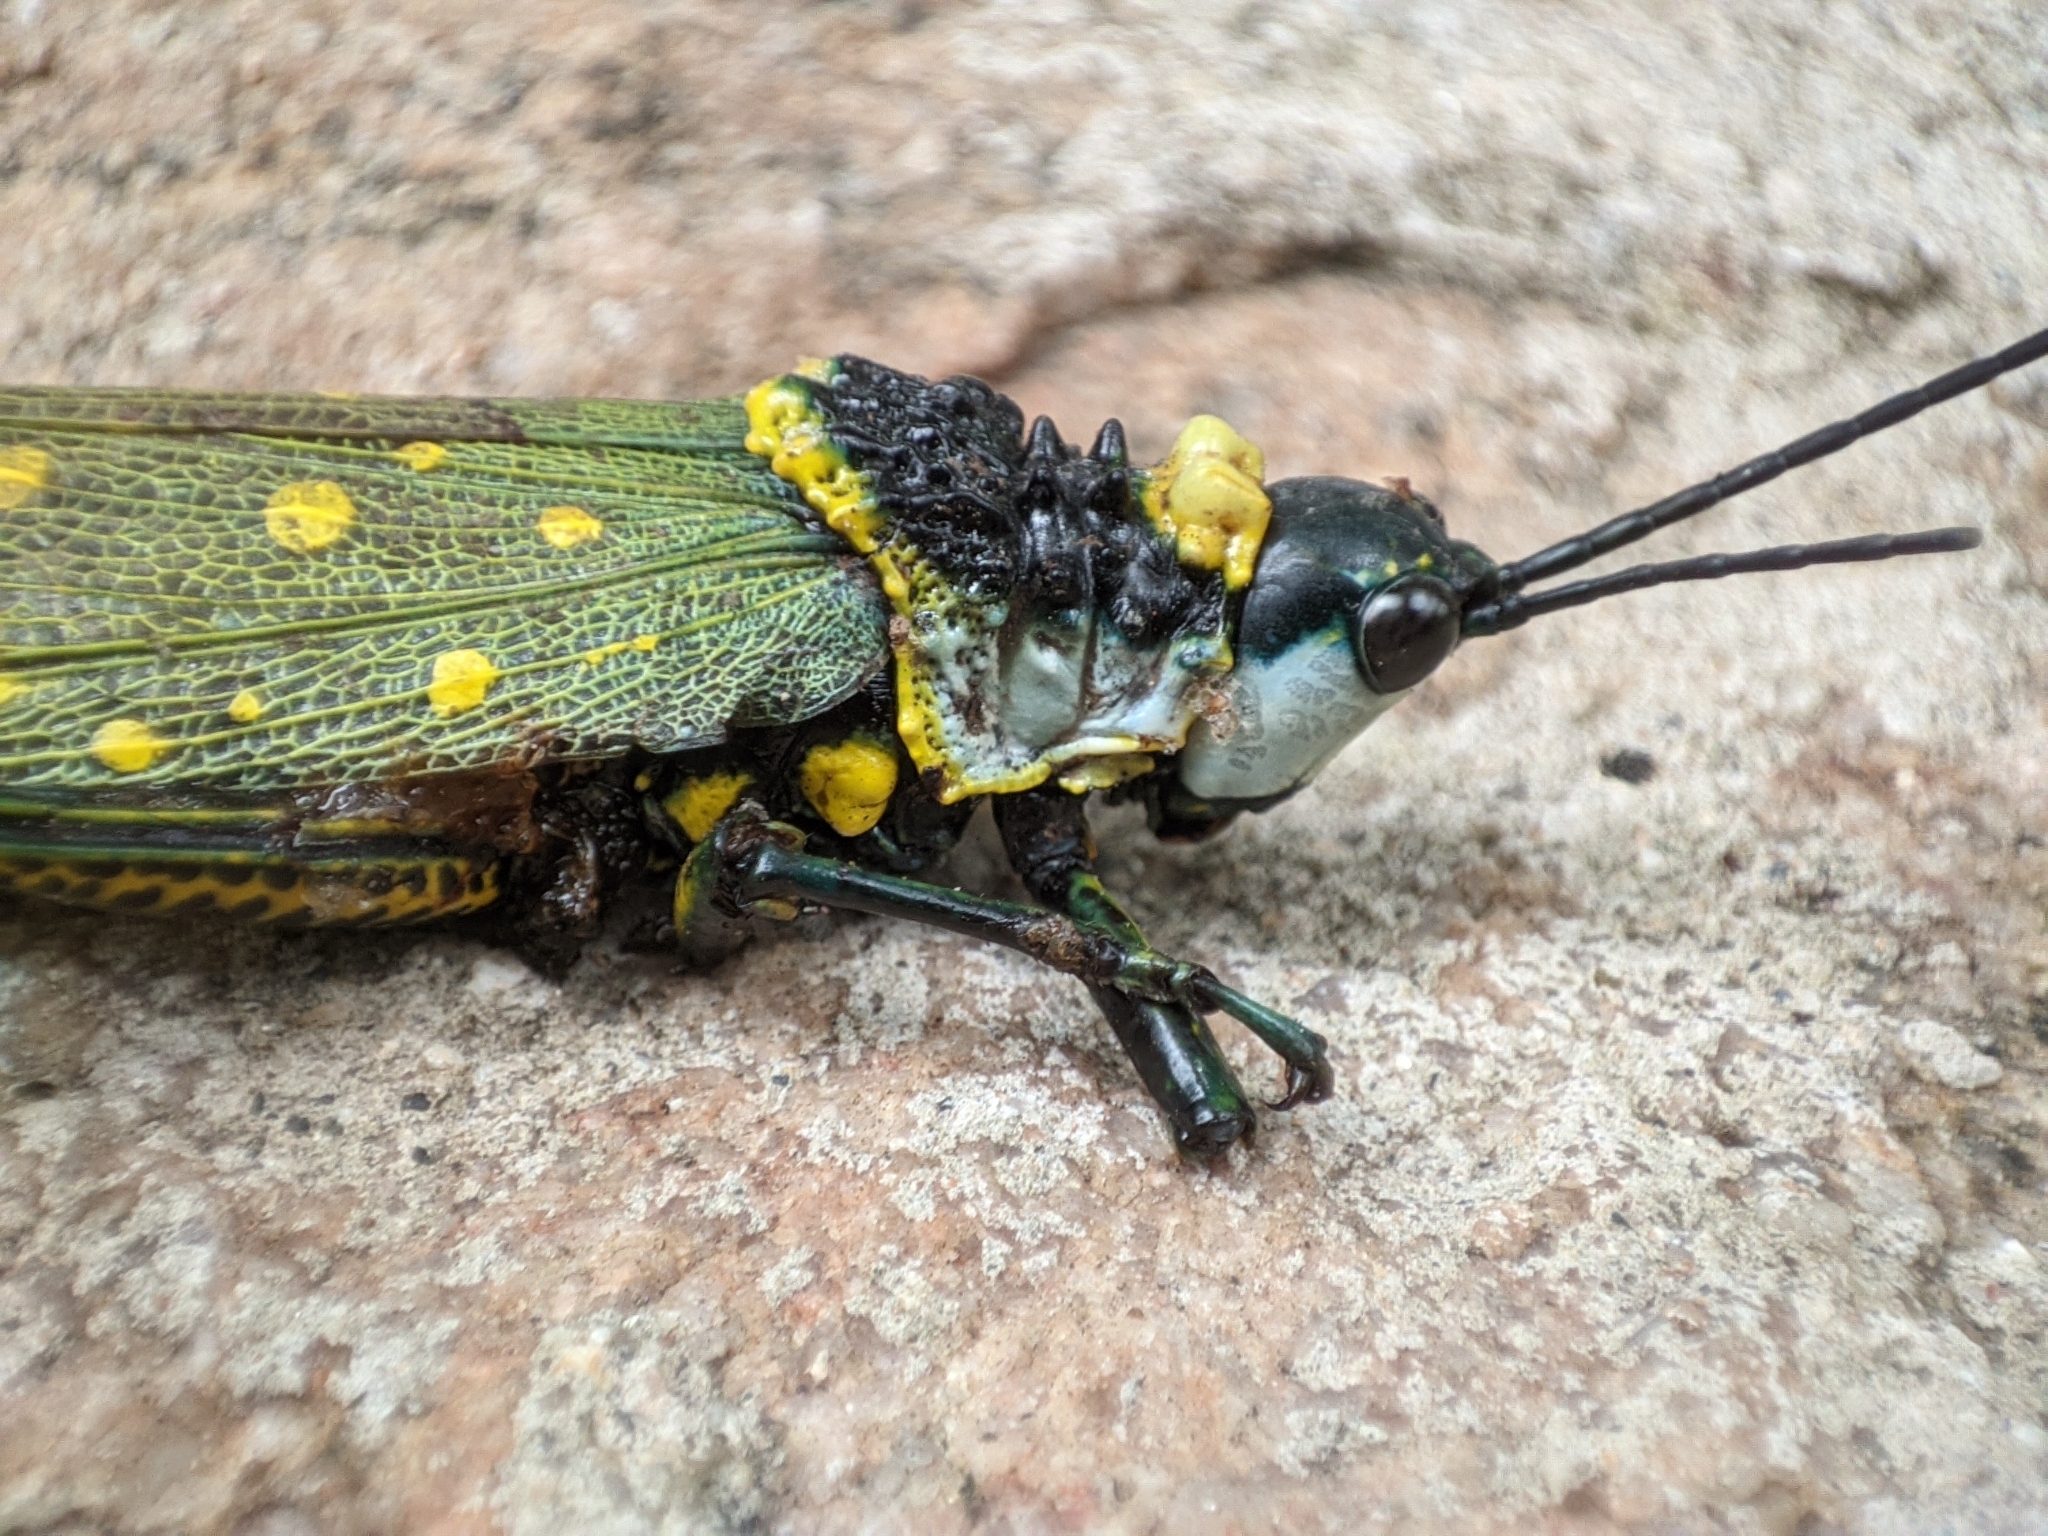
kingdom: Animalia
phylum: Arthropoda
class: Insecta
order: Orthoptera
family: Pyrgomorphidae
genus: Aularches
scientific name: Aularches miliaris
